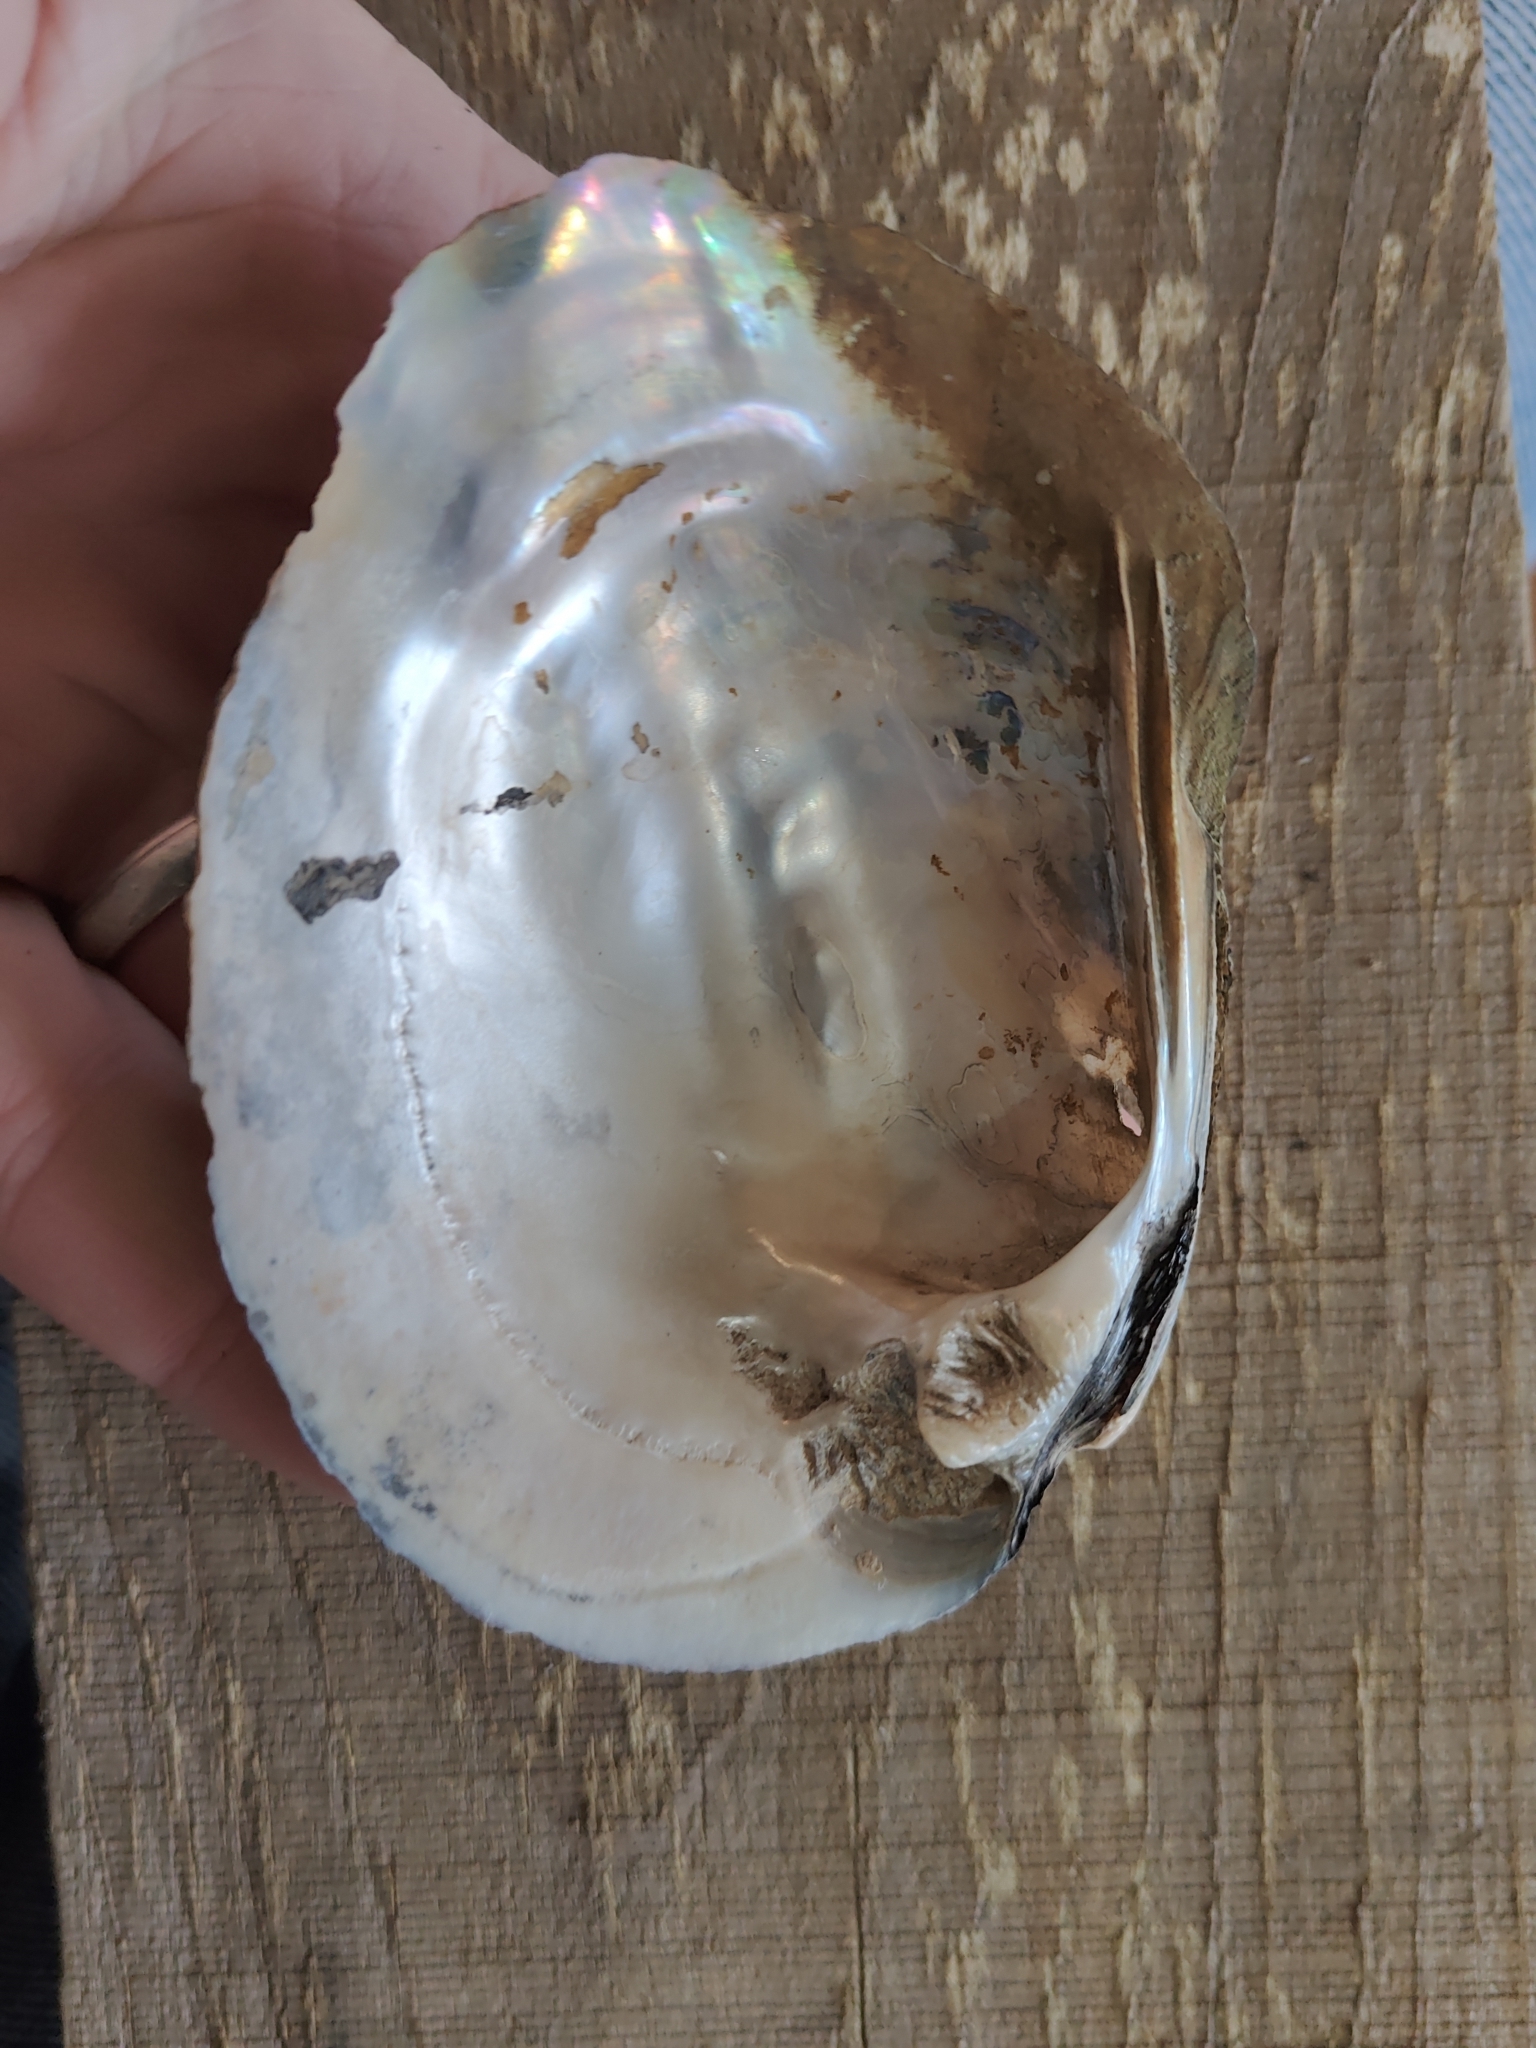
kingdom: Animalia
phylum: Mollusca
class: Bivalvia
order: Unionida
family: Unionidae
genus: Amblema
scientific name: Amblema plicata
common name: Threeridge
